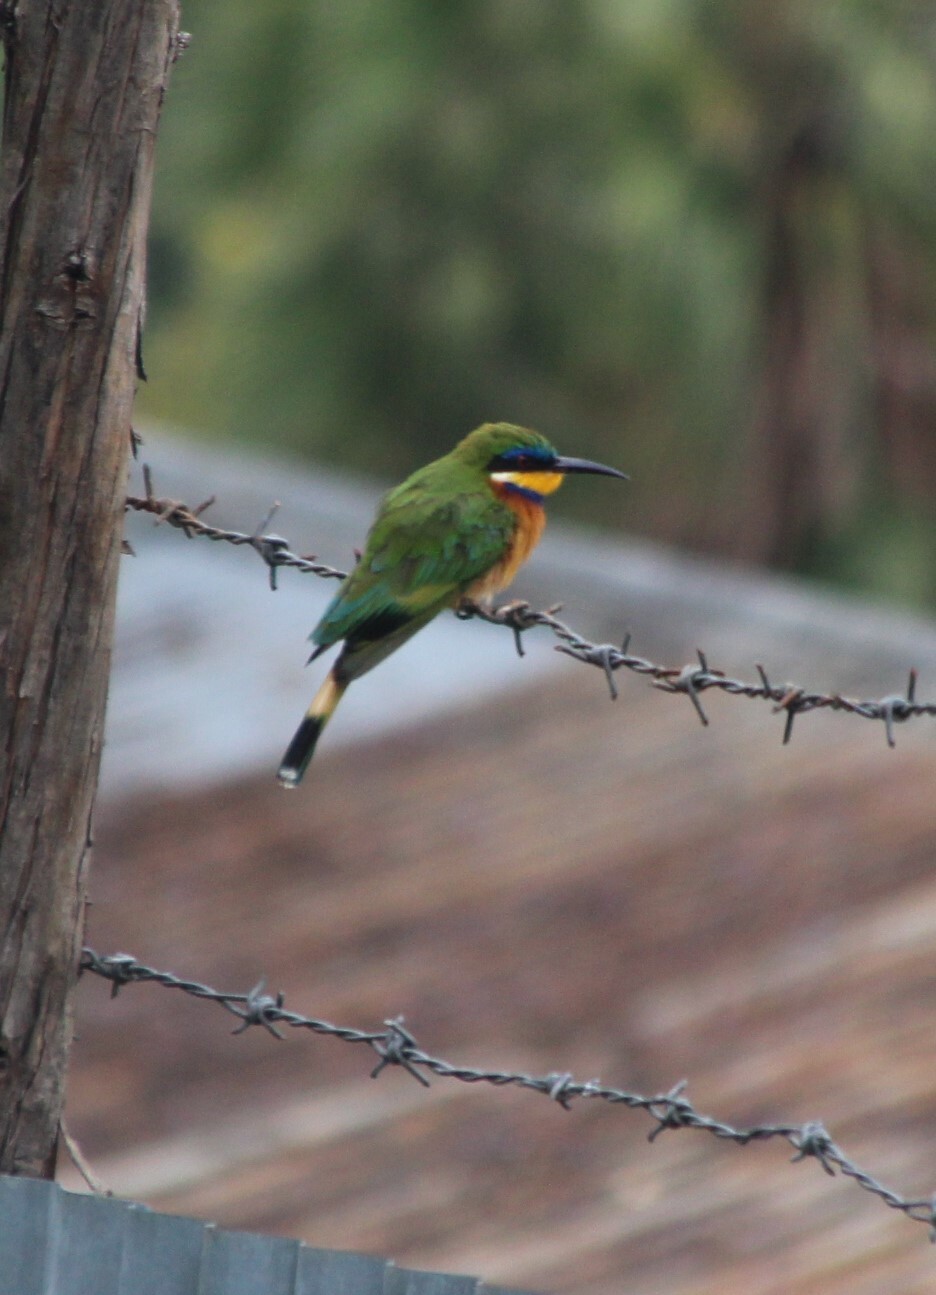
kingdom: Animalia
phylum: Chordata
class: Aves
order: Coraciiformes
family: Meropidae
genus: Merops
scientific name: Merops lafresnayii
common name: Ethiopian bee-eater
